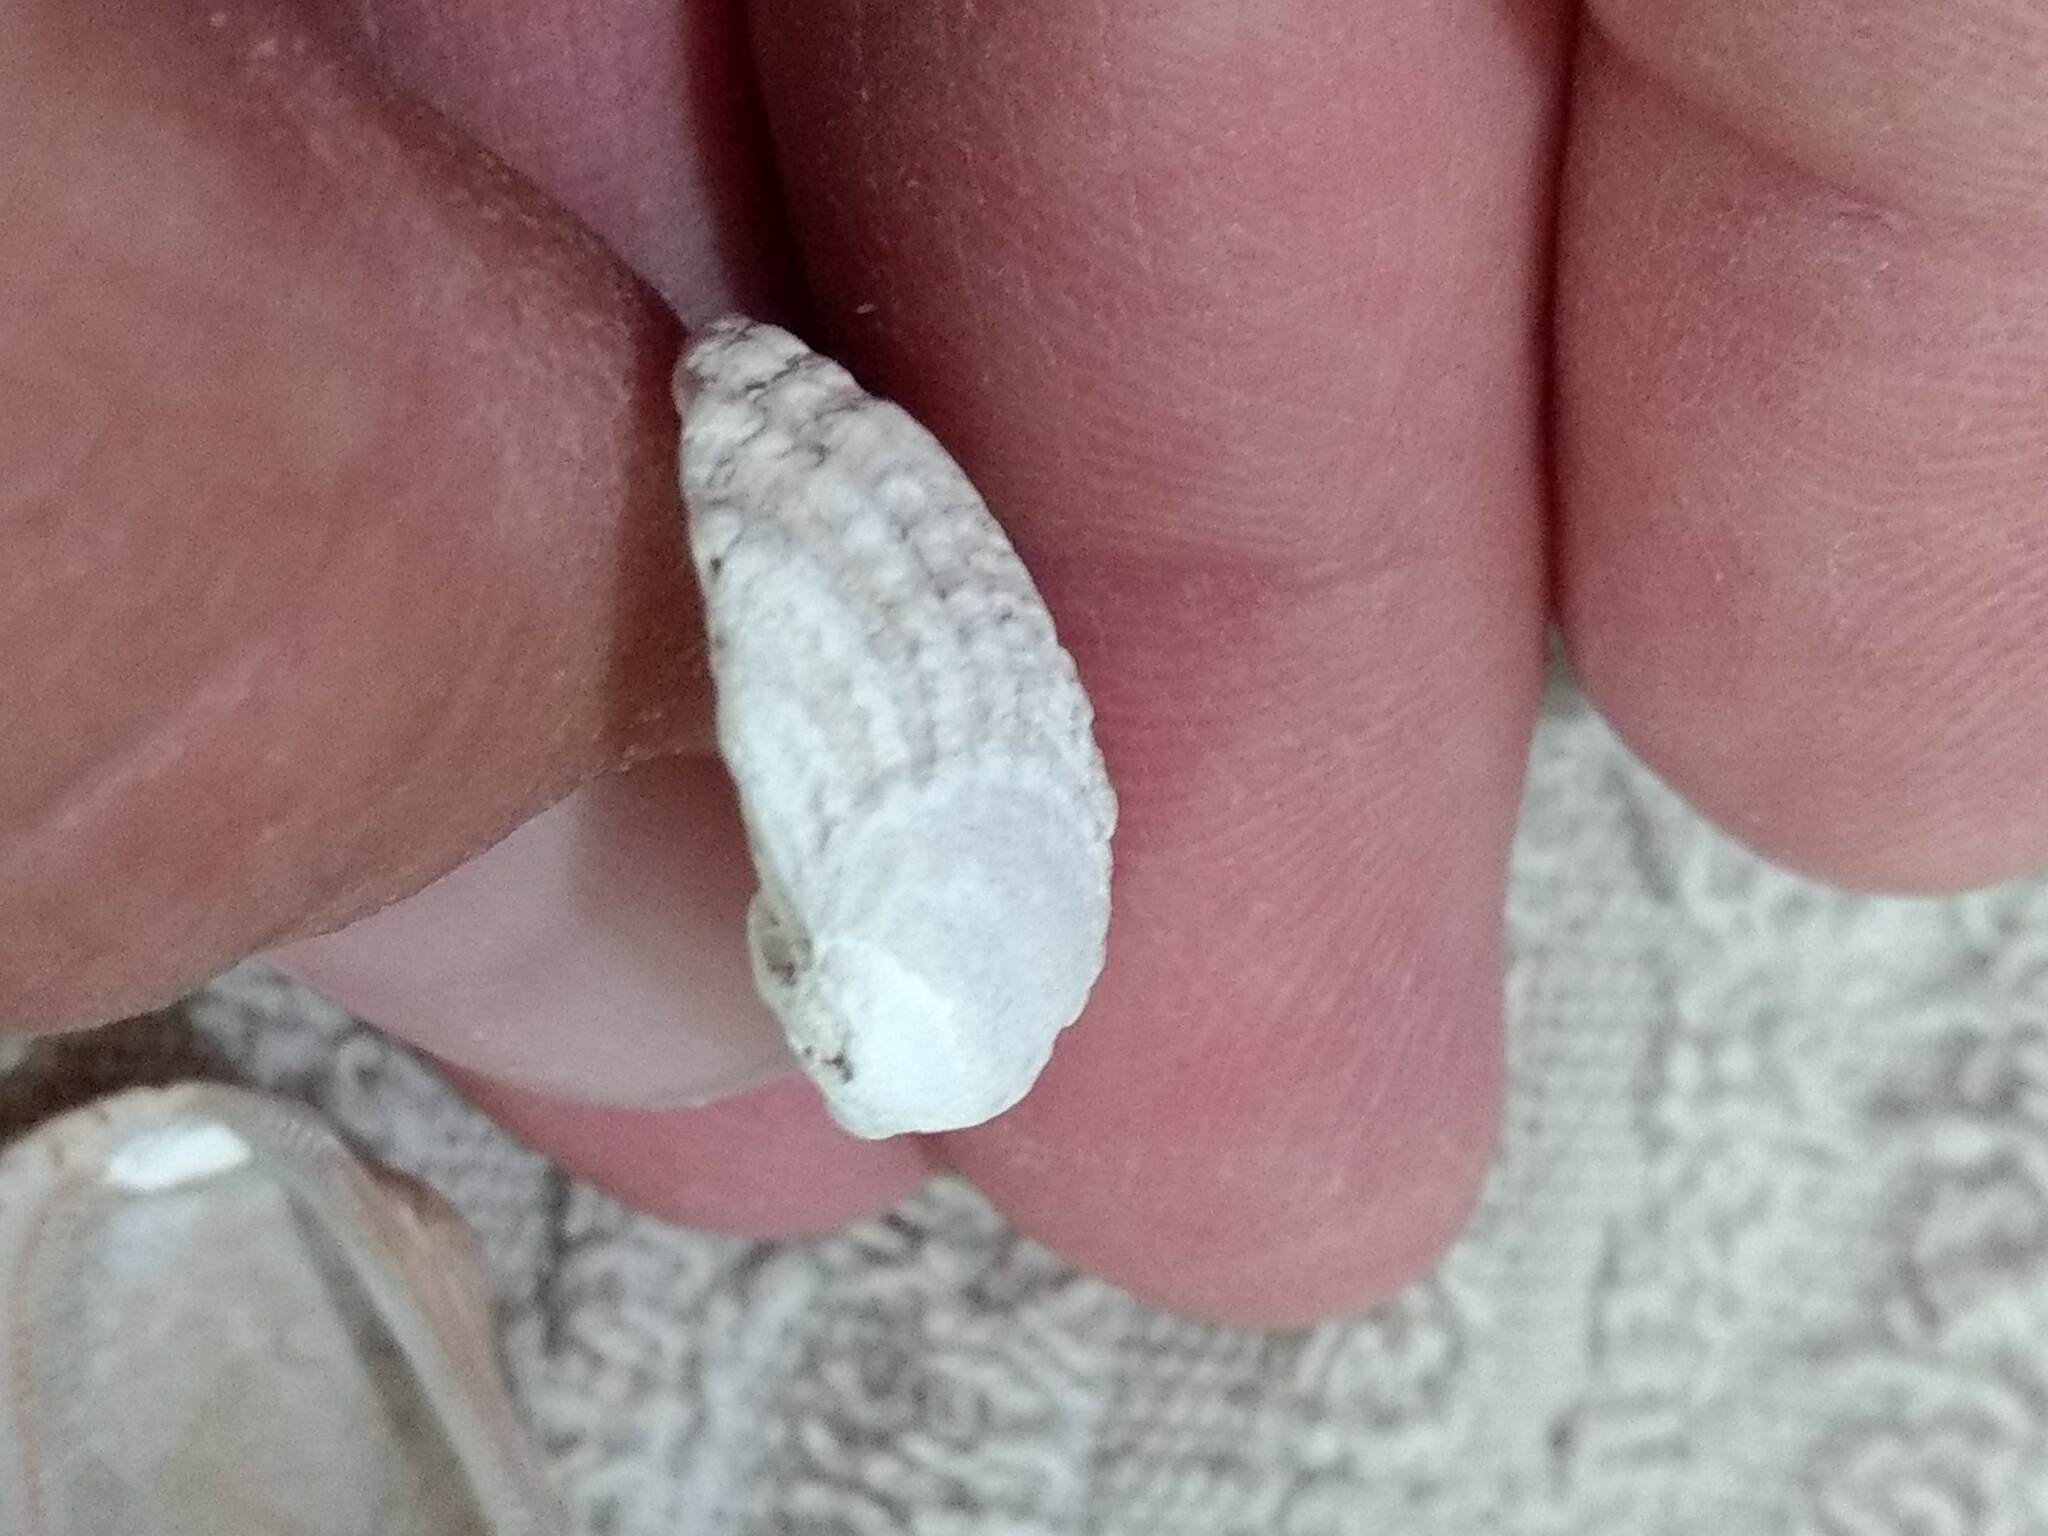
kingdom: Animalia
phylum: Mollusca
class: Bivalvia
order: Carditida
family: Carditidae
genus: Cardites
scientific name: Cardites floridanus
